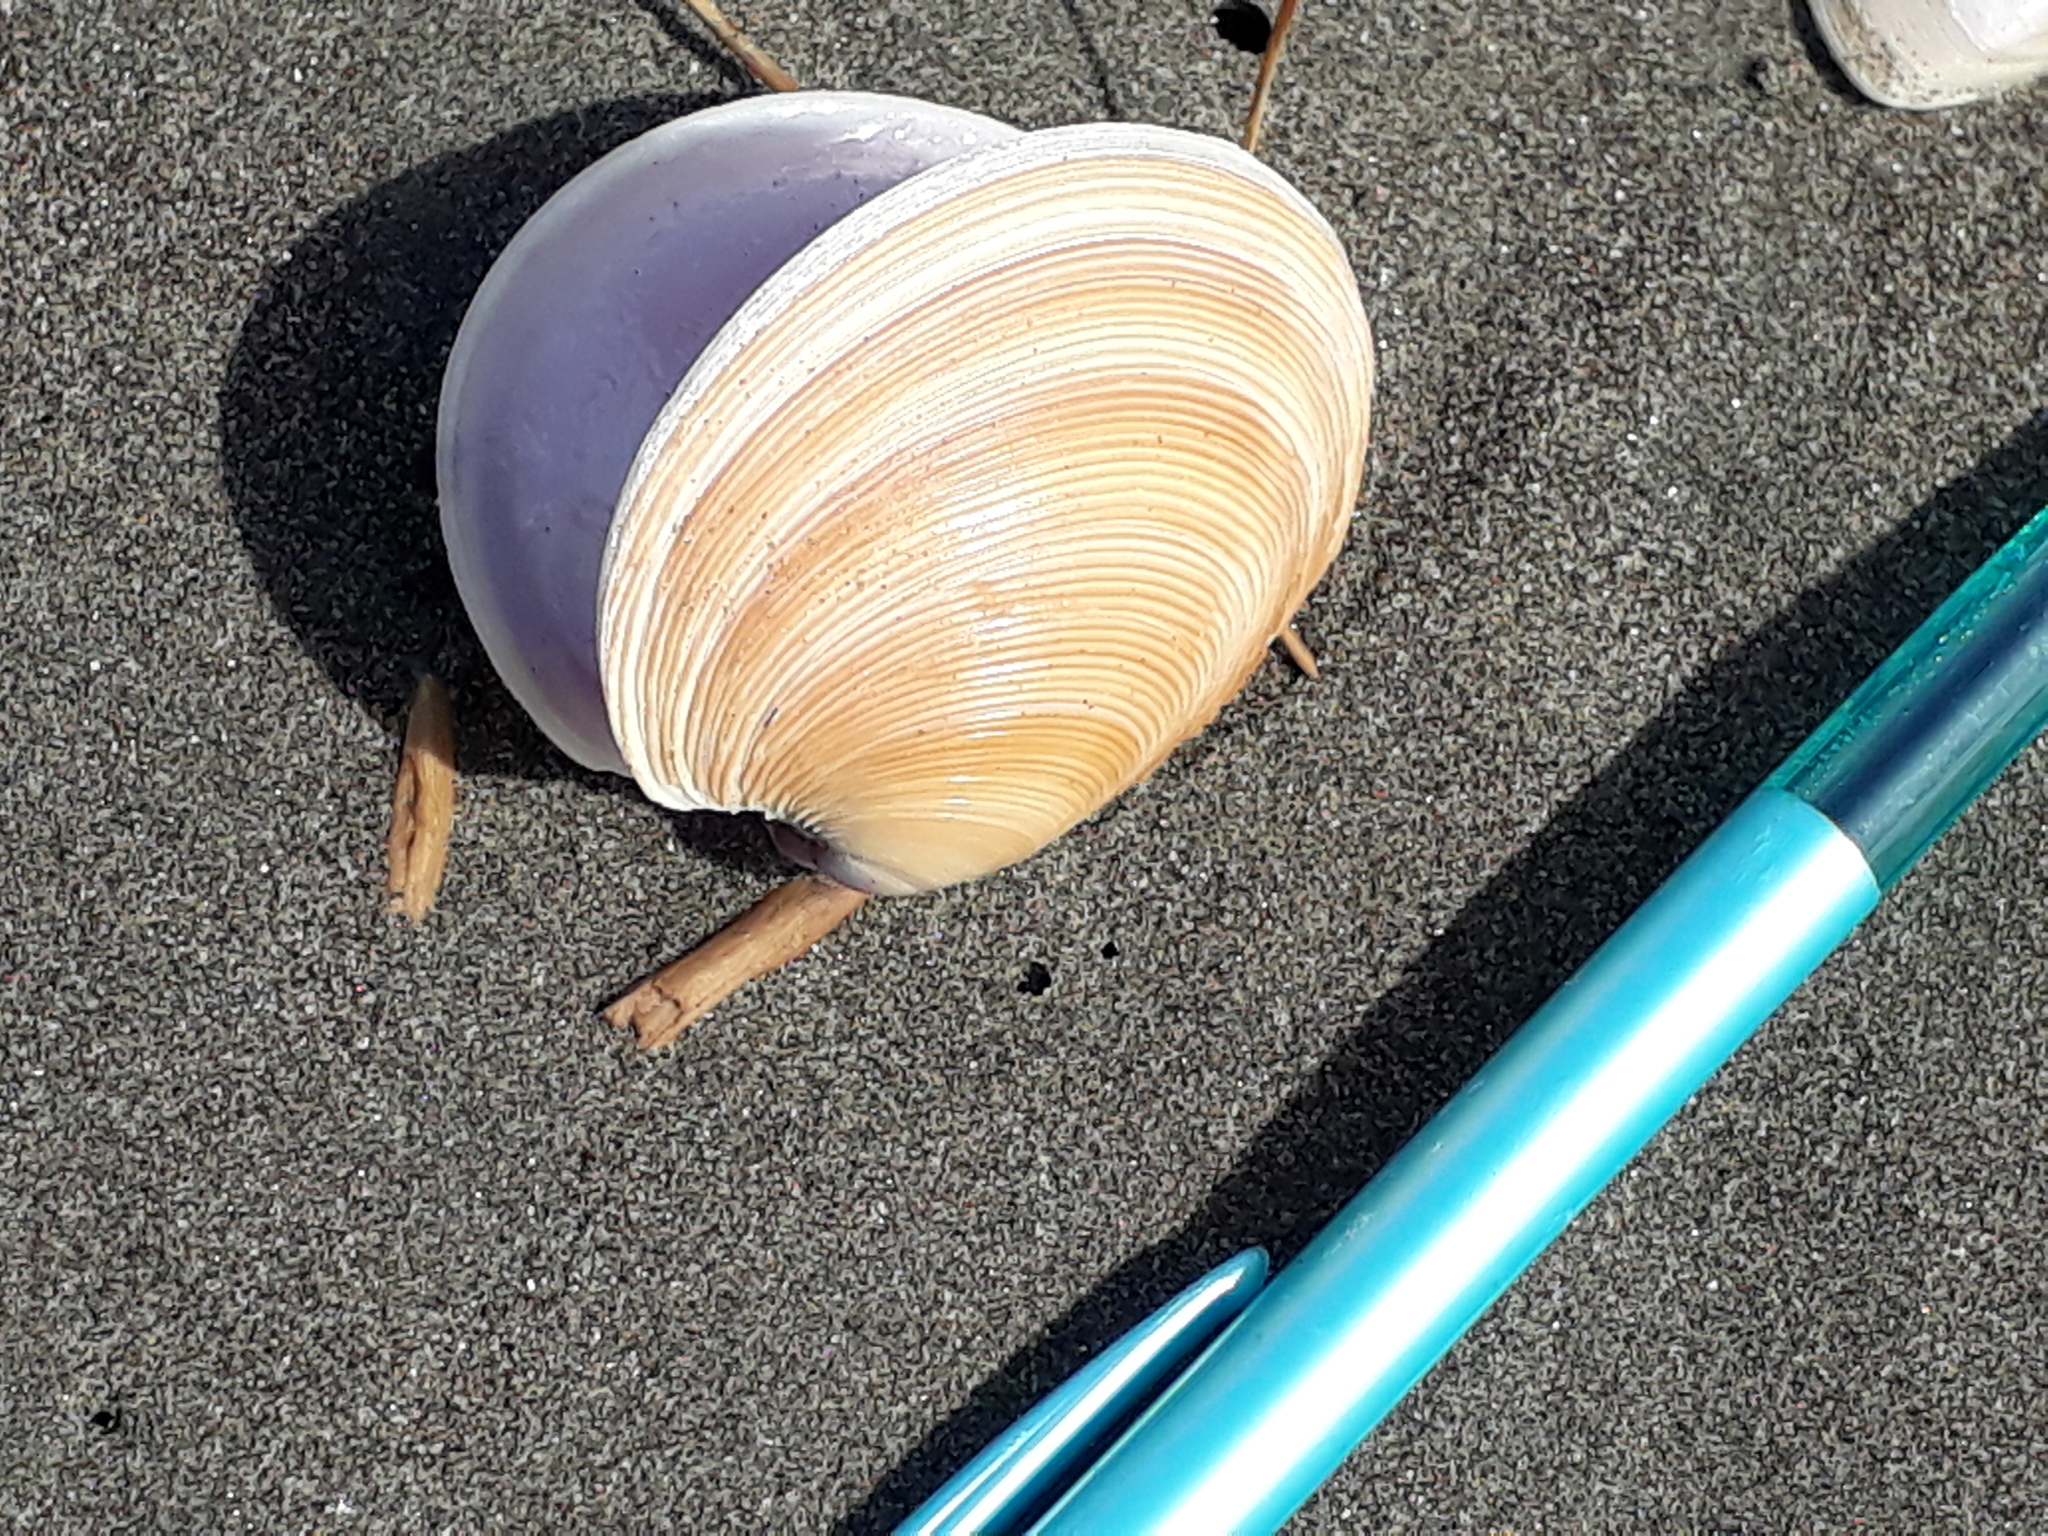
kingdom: Animalia
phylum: Mollusca
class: Bivalvia
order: Venerida
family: Veneridae
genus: Dosinia
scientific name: Dosinia anus
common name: Old-woman dosinia
